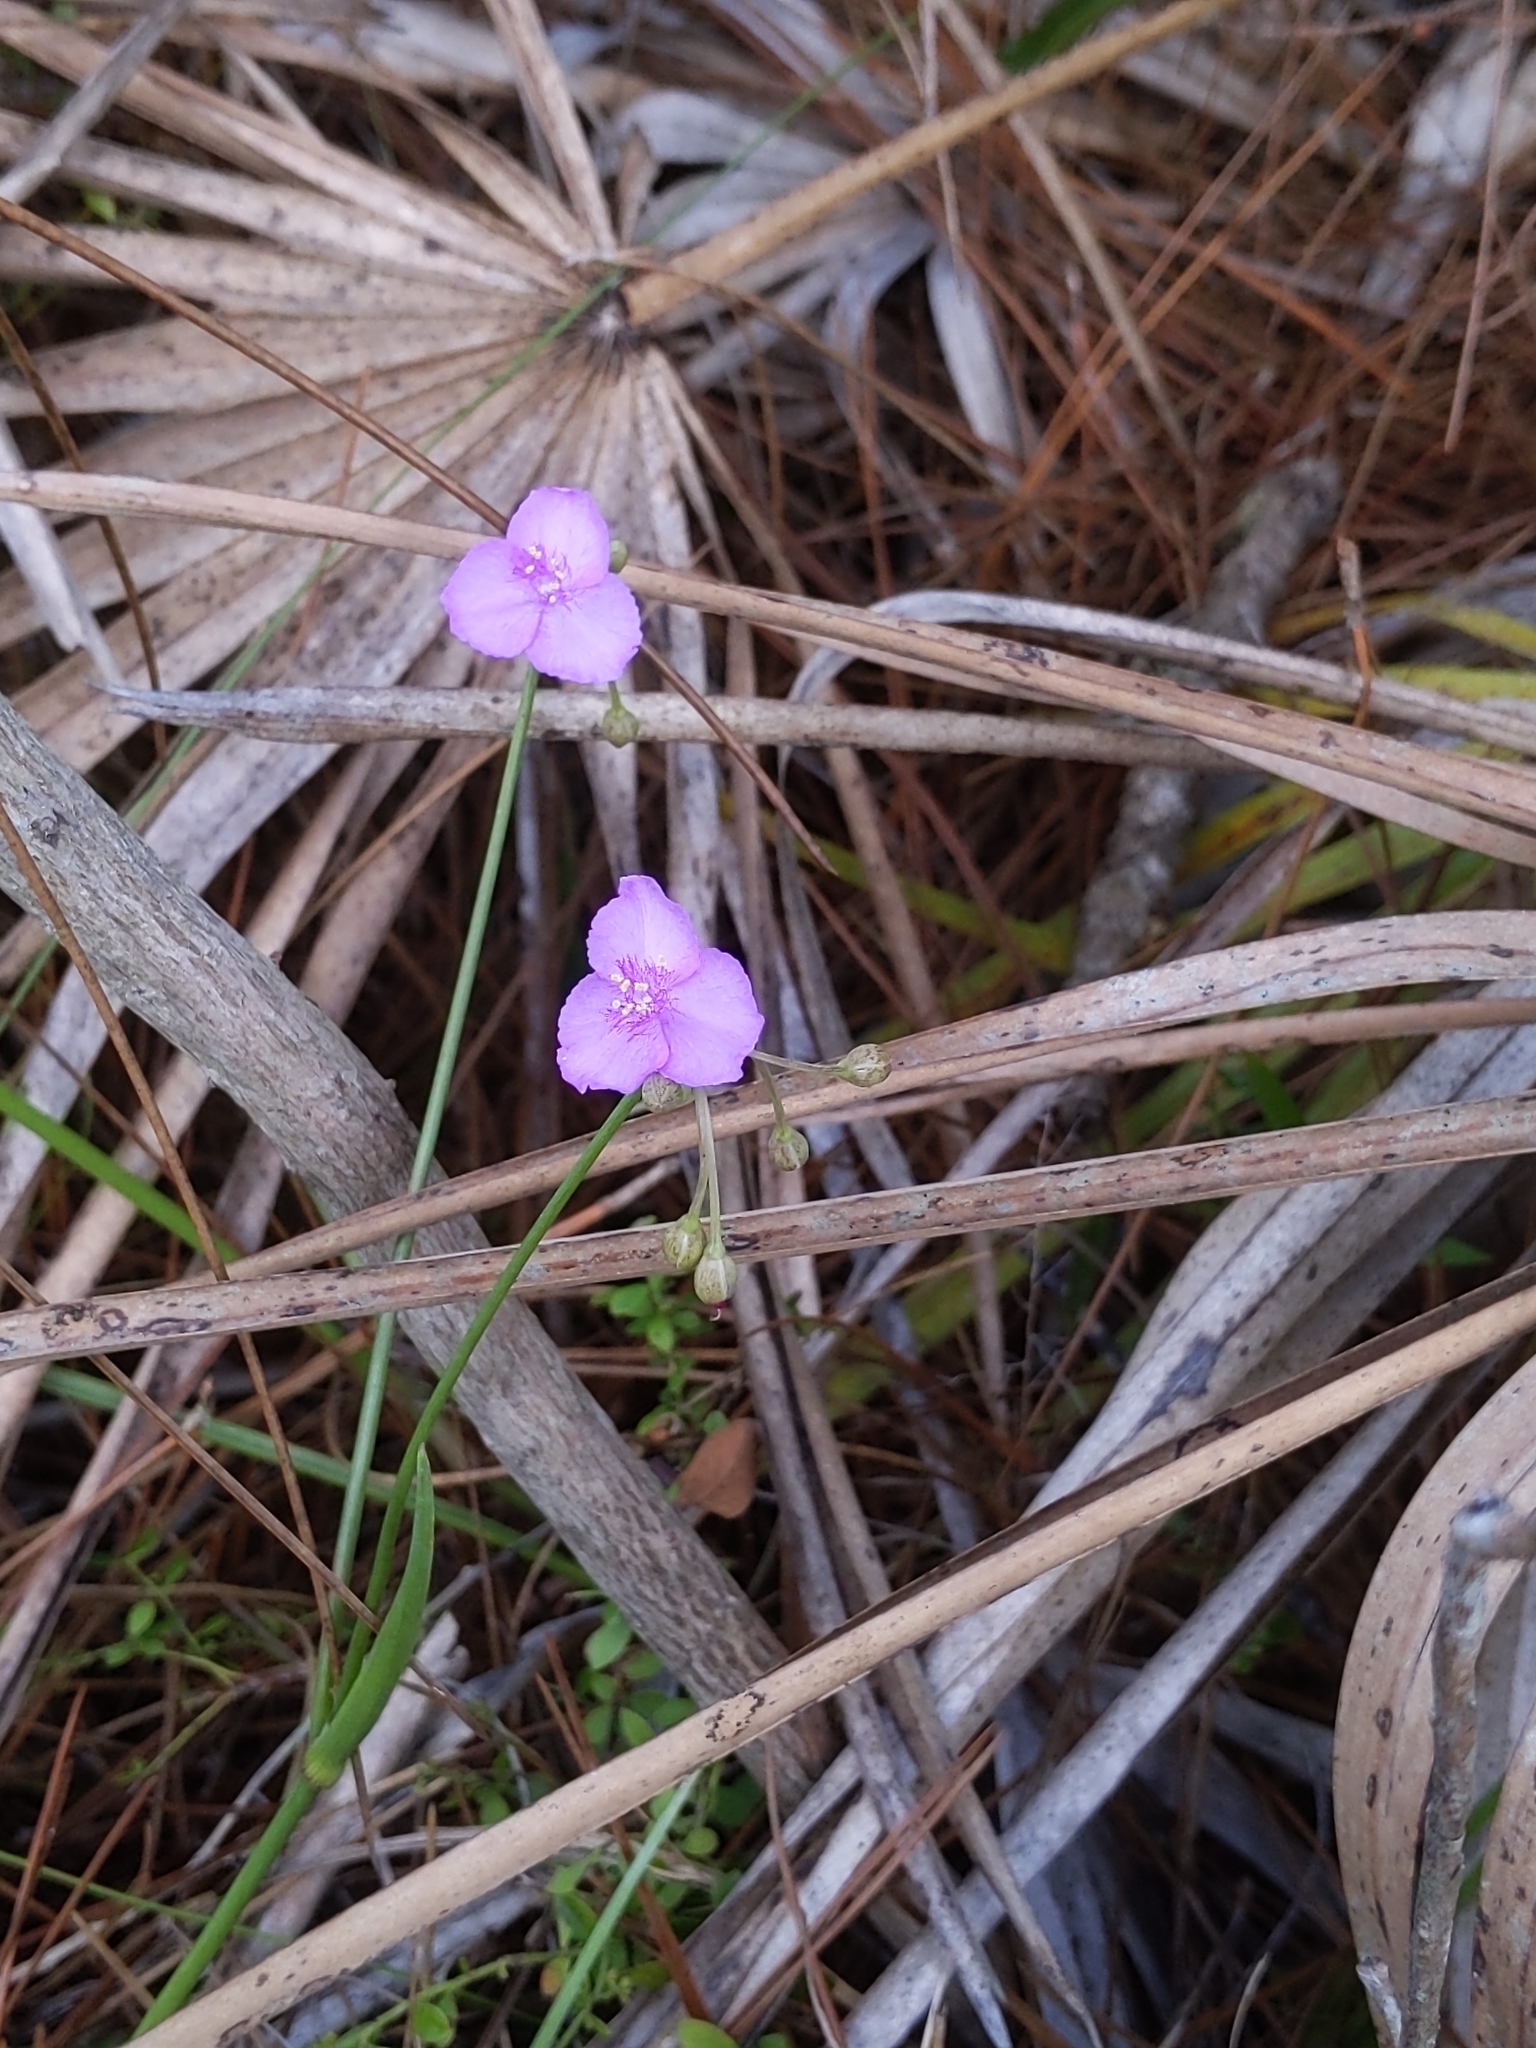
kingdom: Plantae
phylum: Tracheophyta
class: Liliopsida
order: Commelinales
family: Commelinaceae
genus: Callisia
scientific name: Callisia ornata
